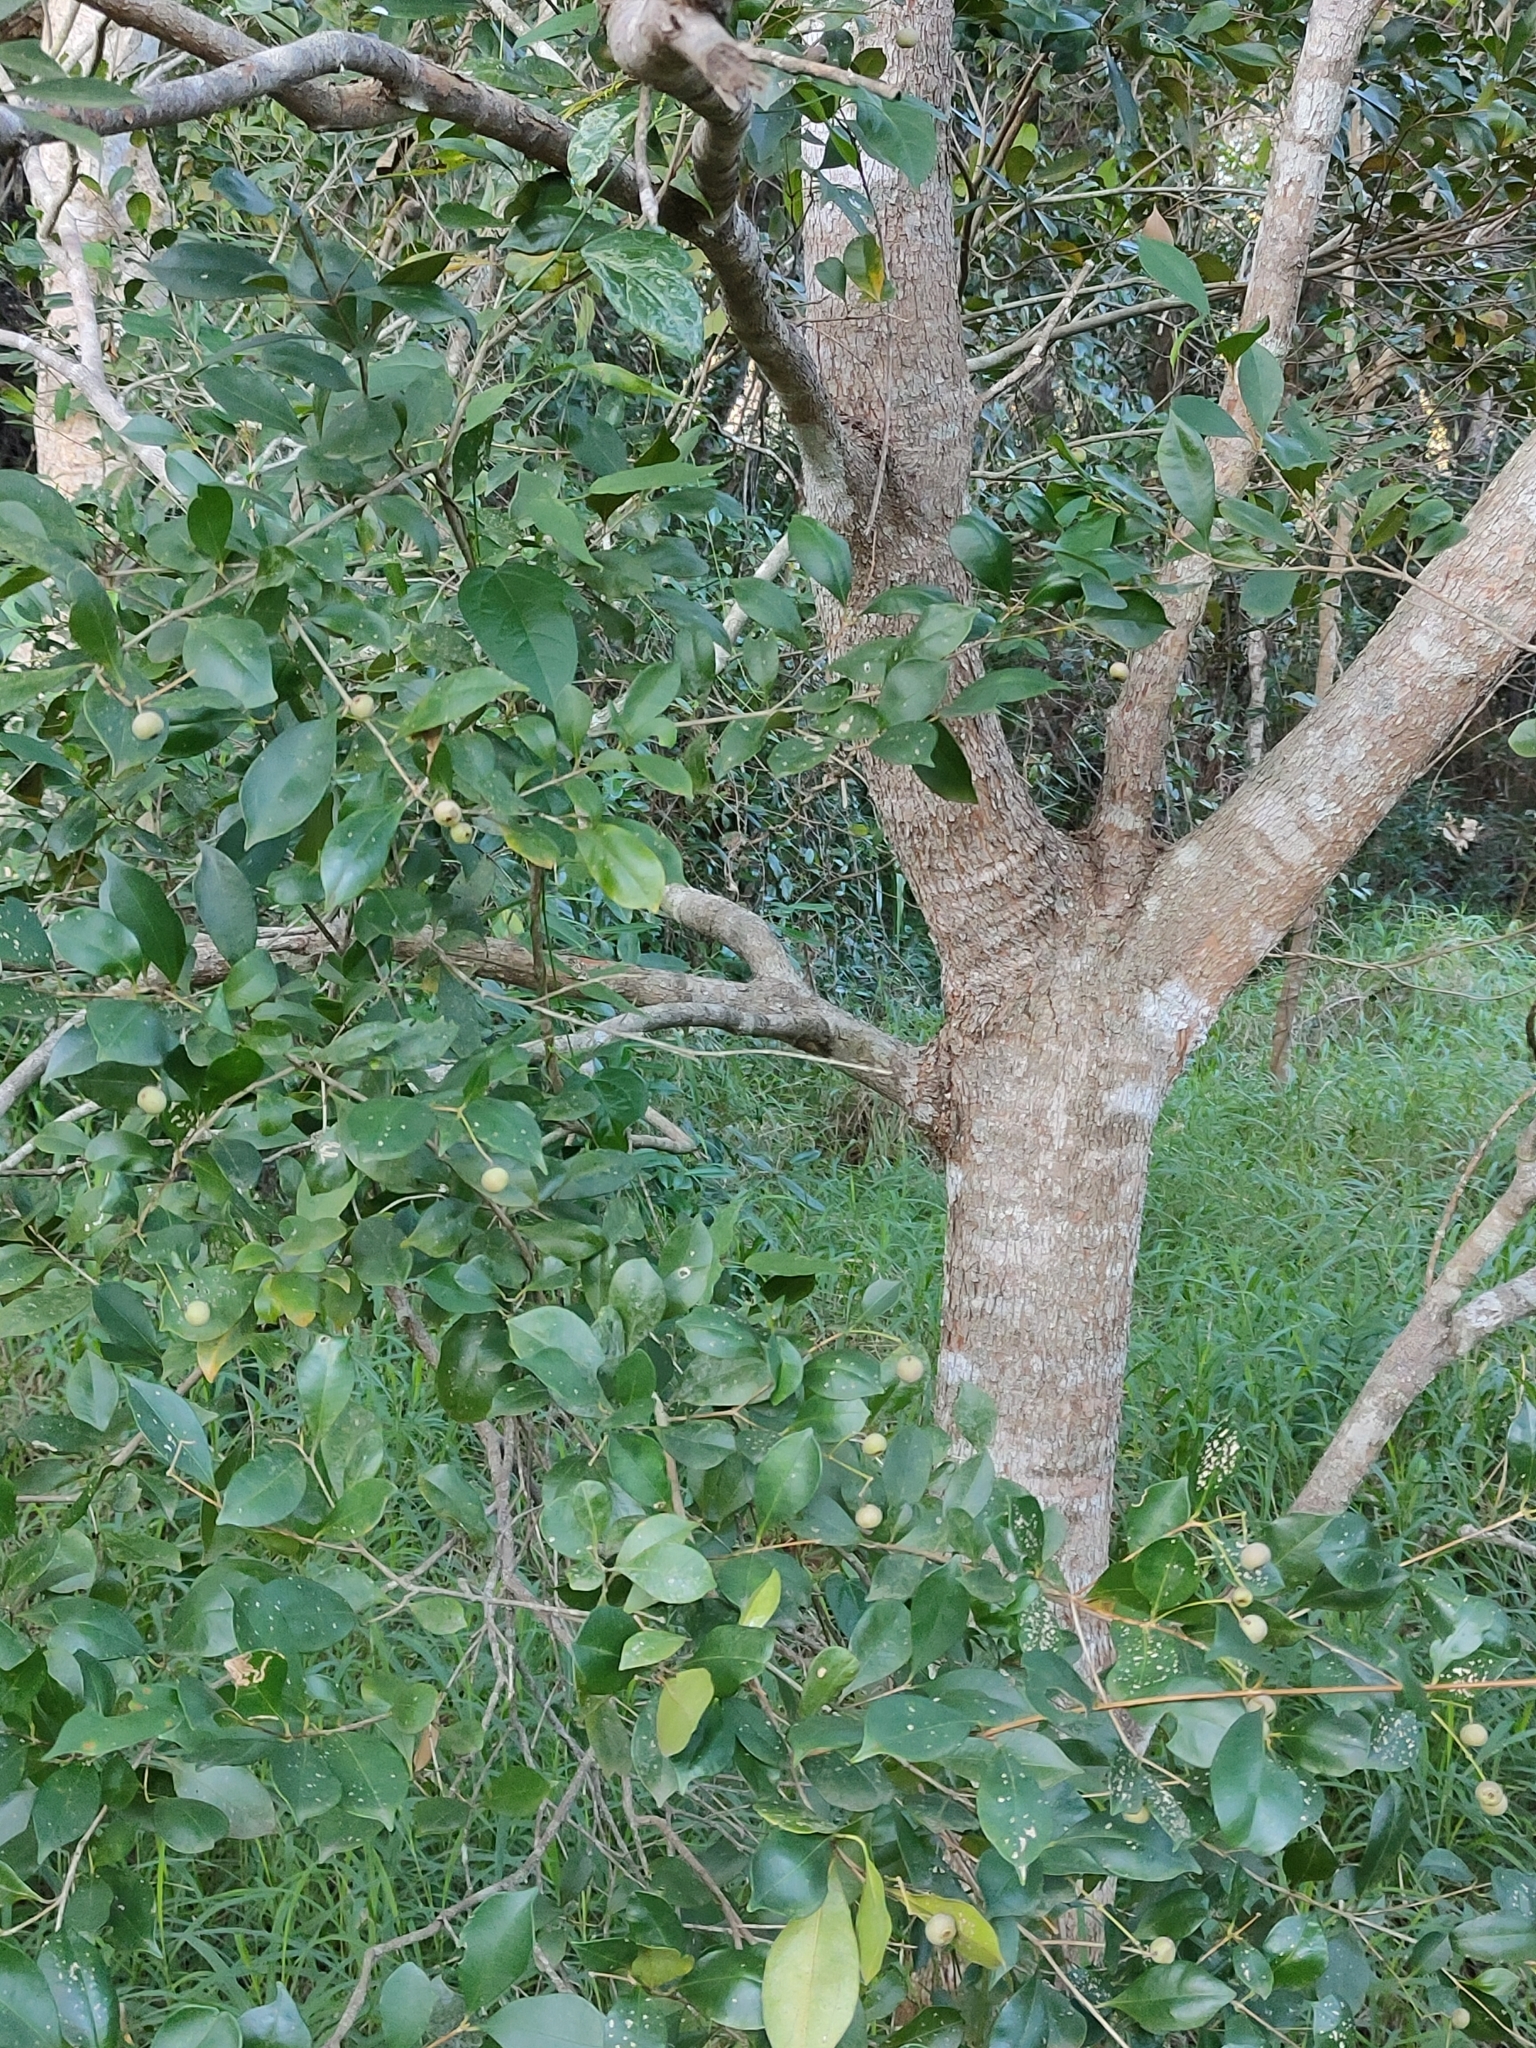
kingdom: Plantae
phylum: Tracheophyta
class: Magnoliopsida
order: Myrtales
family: Myrtaceae
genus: Syzygium
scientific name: Syzygium smithii
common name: Lilly-pilly
